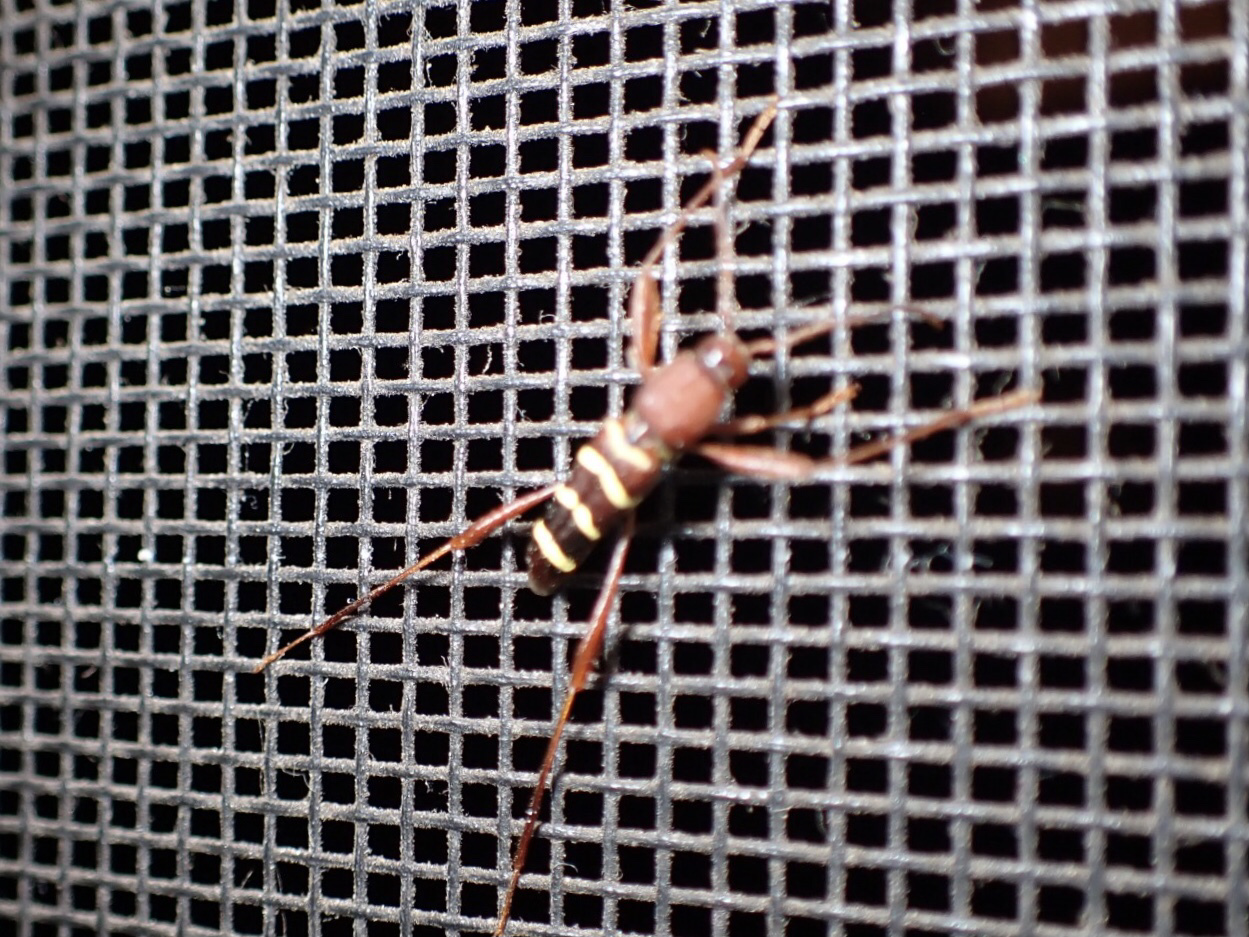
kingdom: Animalia
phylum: Arthropoda
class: Insecta
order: Coleoptera
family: Cerambycidae
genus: Neoclytus
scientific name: Neoclytus acuminatus
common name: Read-headed ash borer
